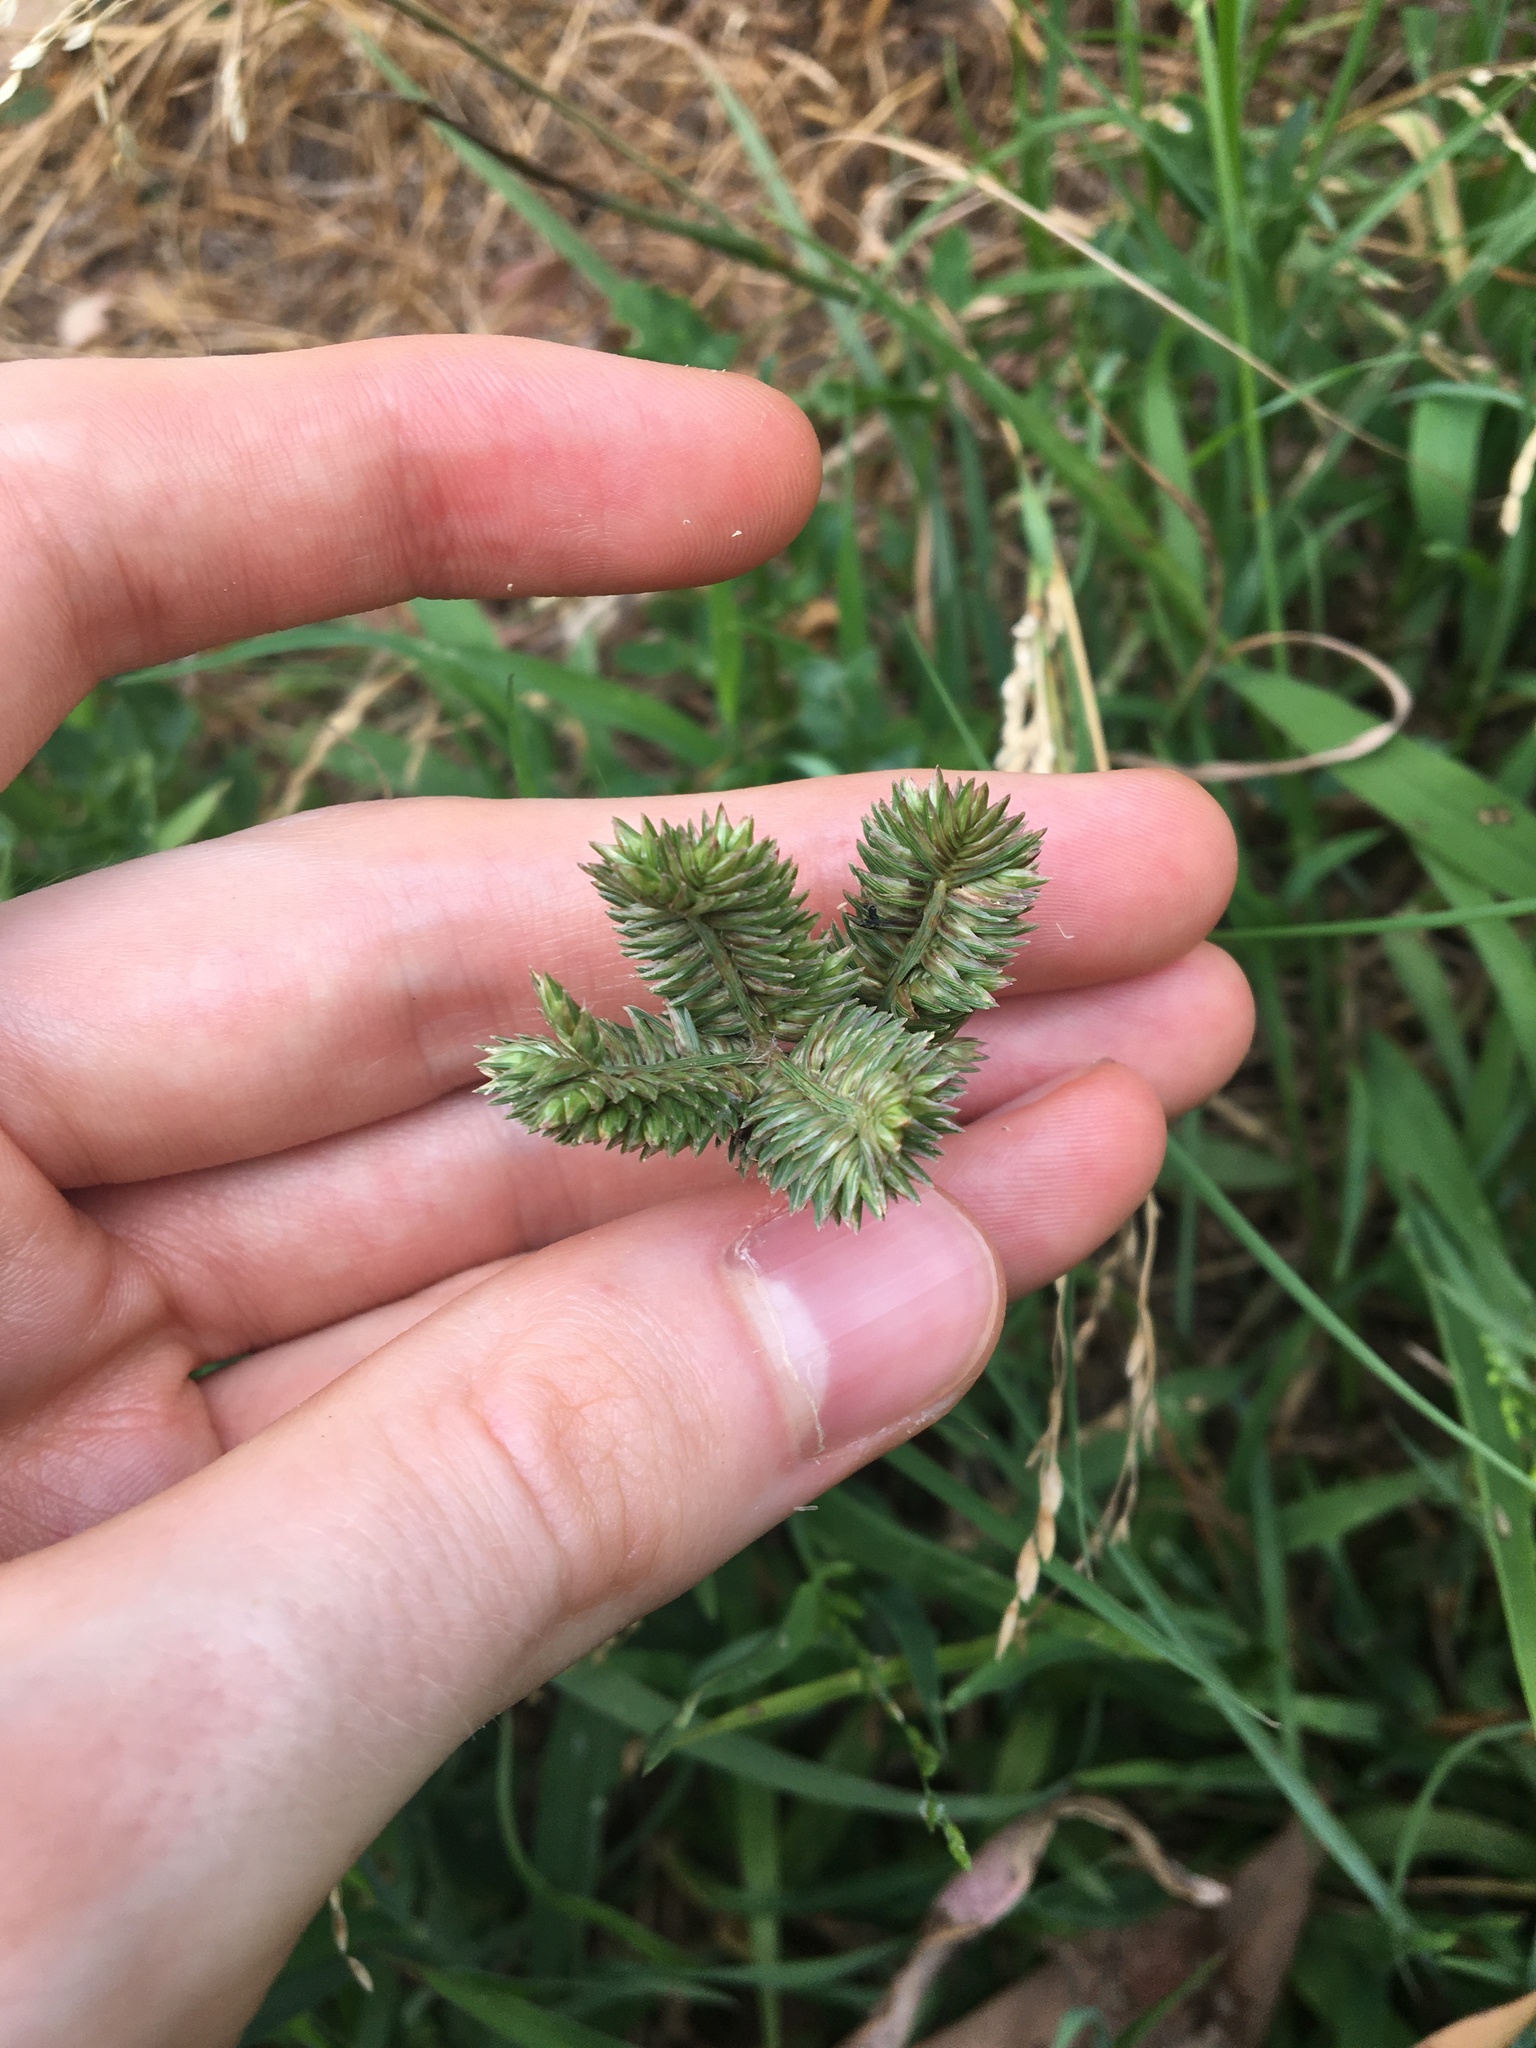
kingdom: Plantae
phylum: Tracheophyta
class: Liliopsida
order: Poales
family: Poaceae
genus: Eleusine
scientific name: Eleusine tristachya
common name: American yard-grass
